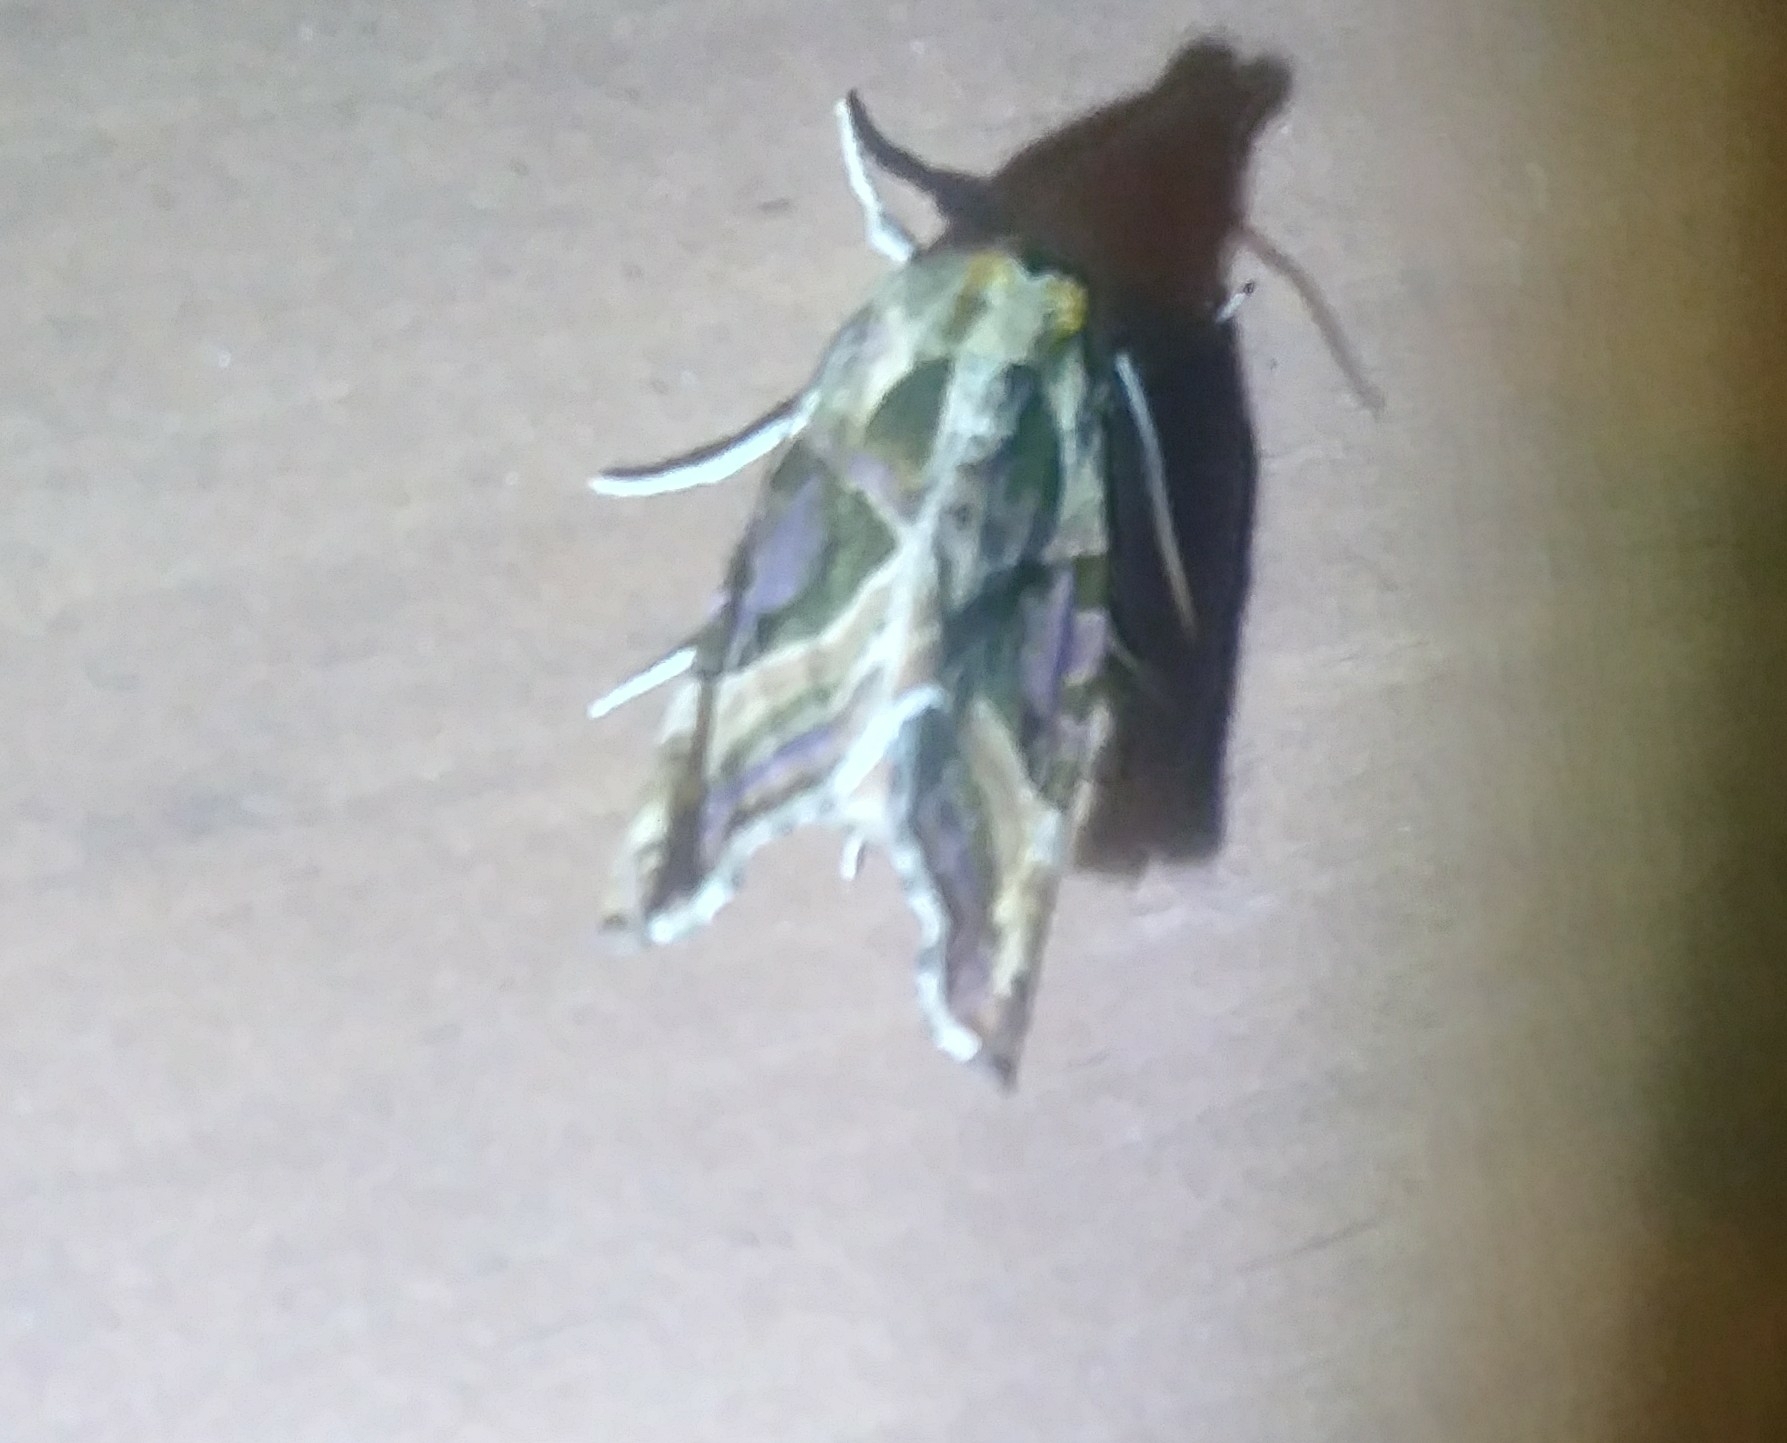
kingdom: Animalia
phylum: Arthropoda
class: Insecta
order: Lepidoptera
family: Noctuidae
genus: Phlogophora
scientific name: Phlogophora iris
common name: Olive angle shades
